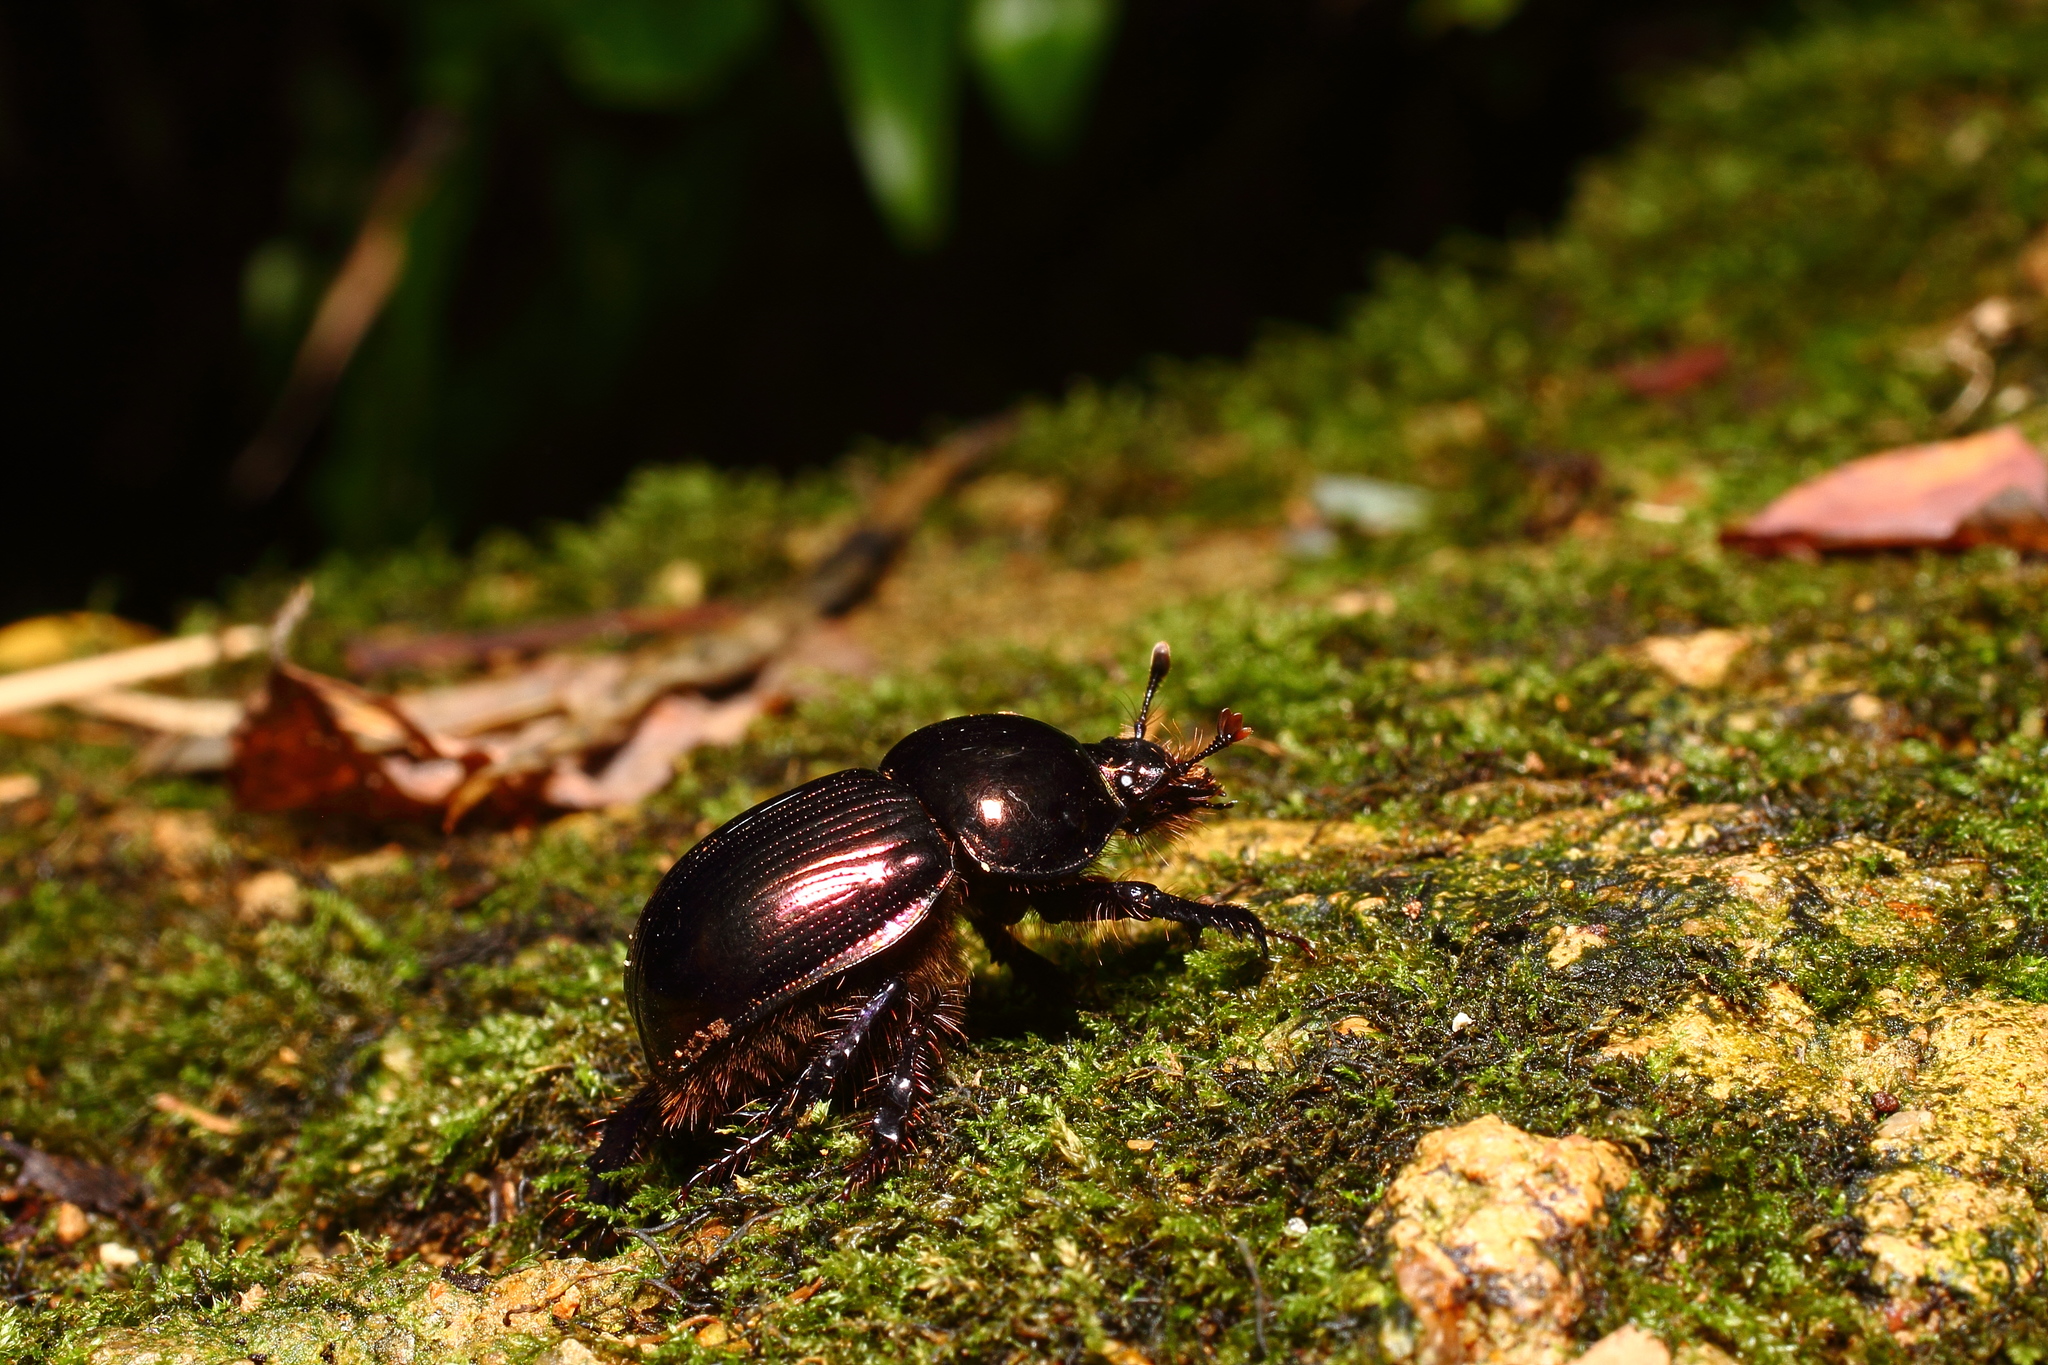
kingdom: Animalia
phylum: Arthropoda
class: Insecta
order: Coleoptera
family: Geotrupidae
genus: Phelotrupes
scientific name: Phelotrupes laevistriatus
